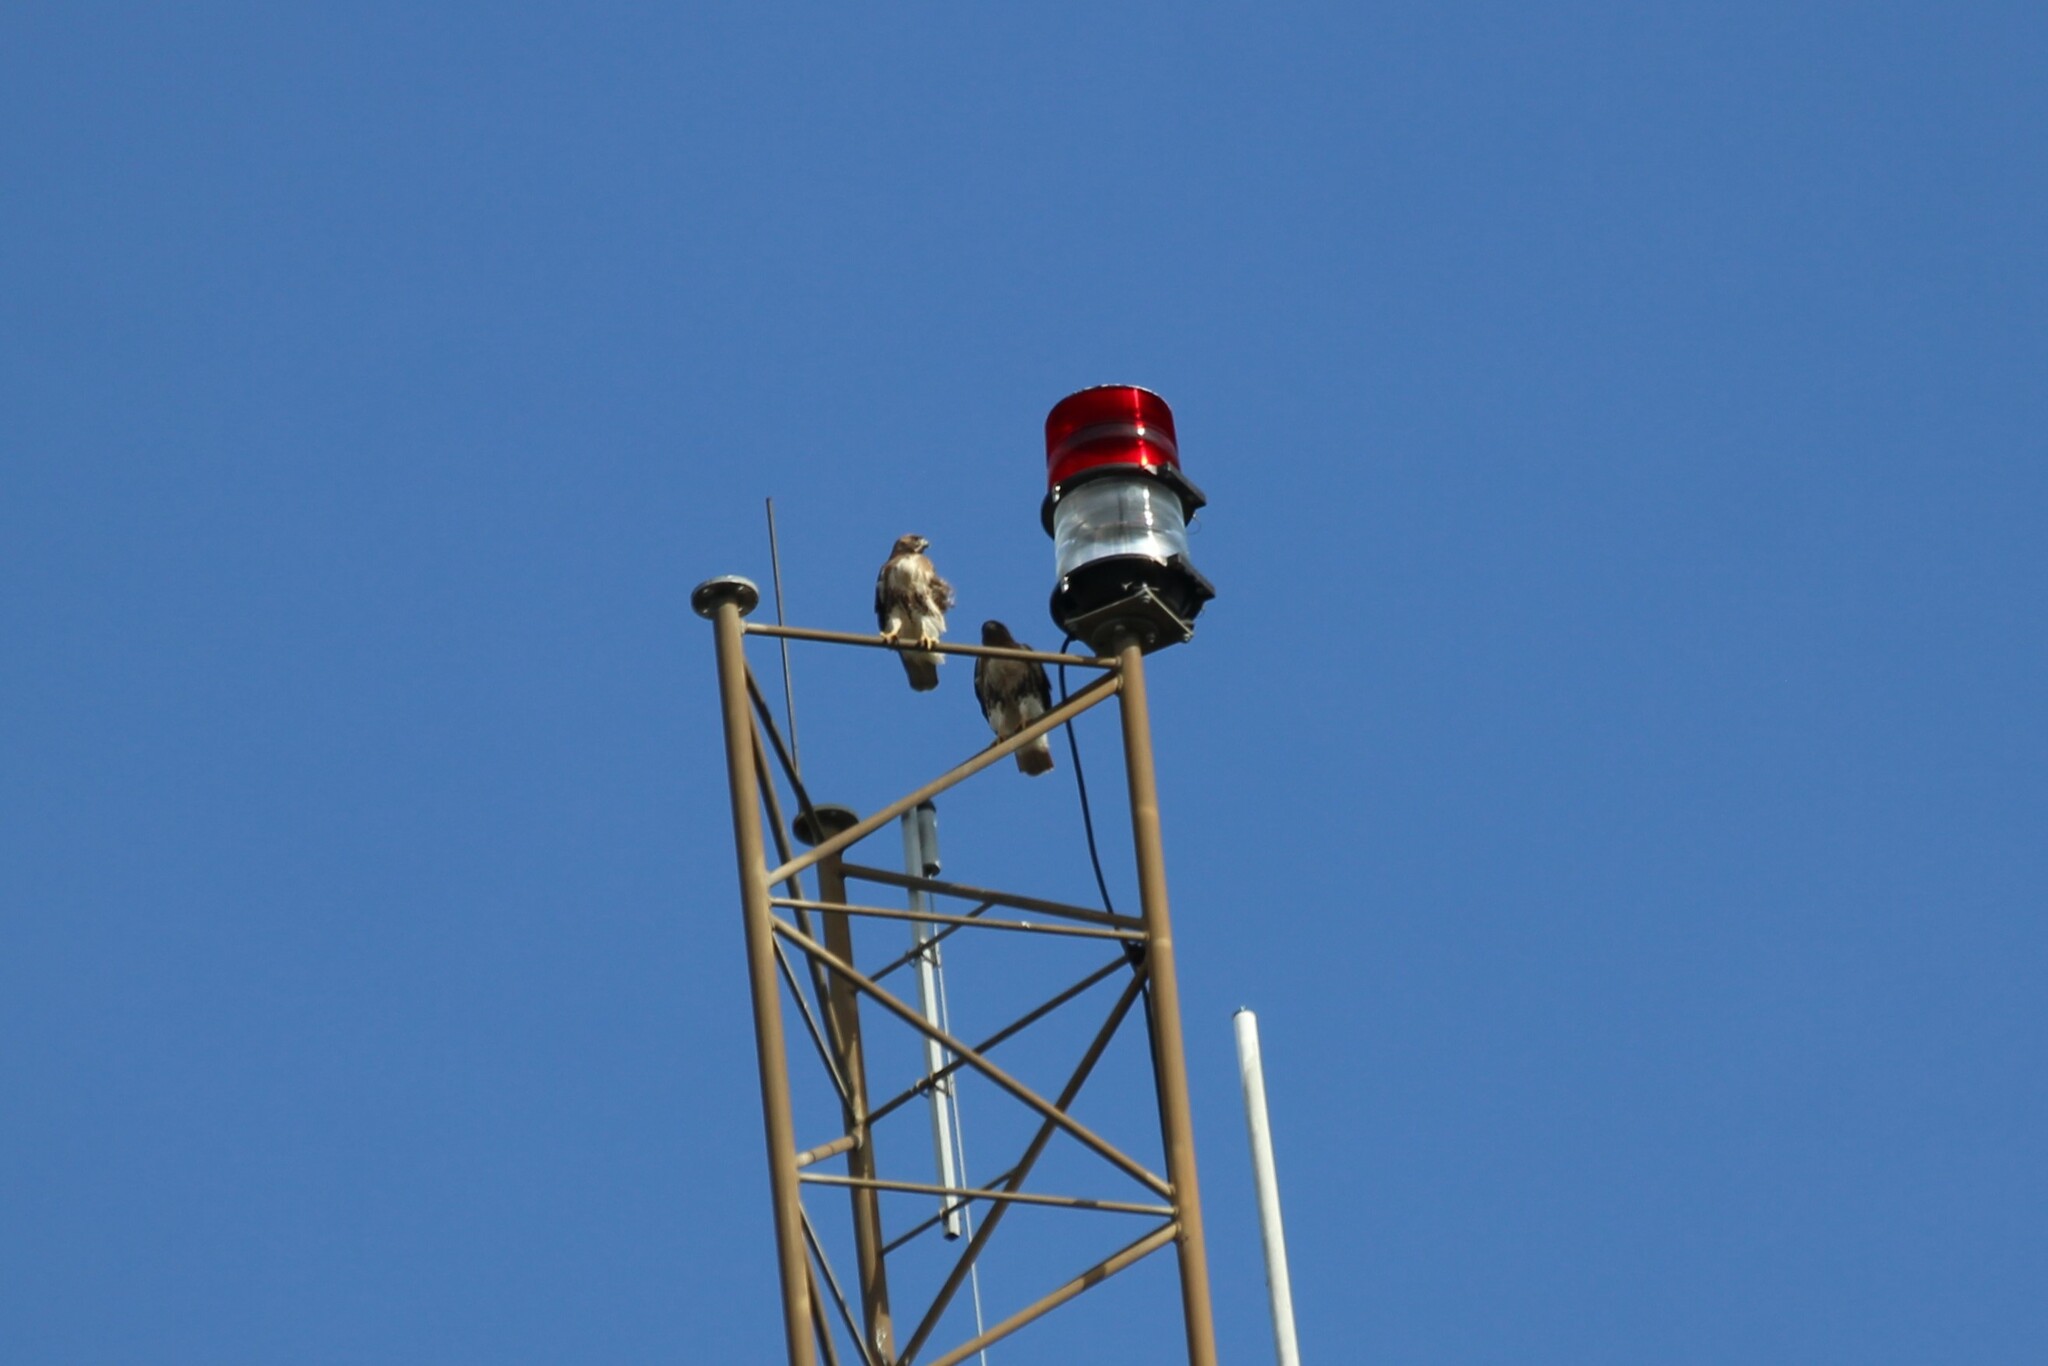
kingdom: Animalia
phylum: Chordata
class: Aves
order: Accipitriformes
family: Accipitridae
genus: Buteo
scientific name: Buteo jamaicensis
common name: Red-tailed hawk
